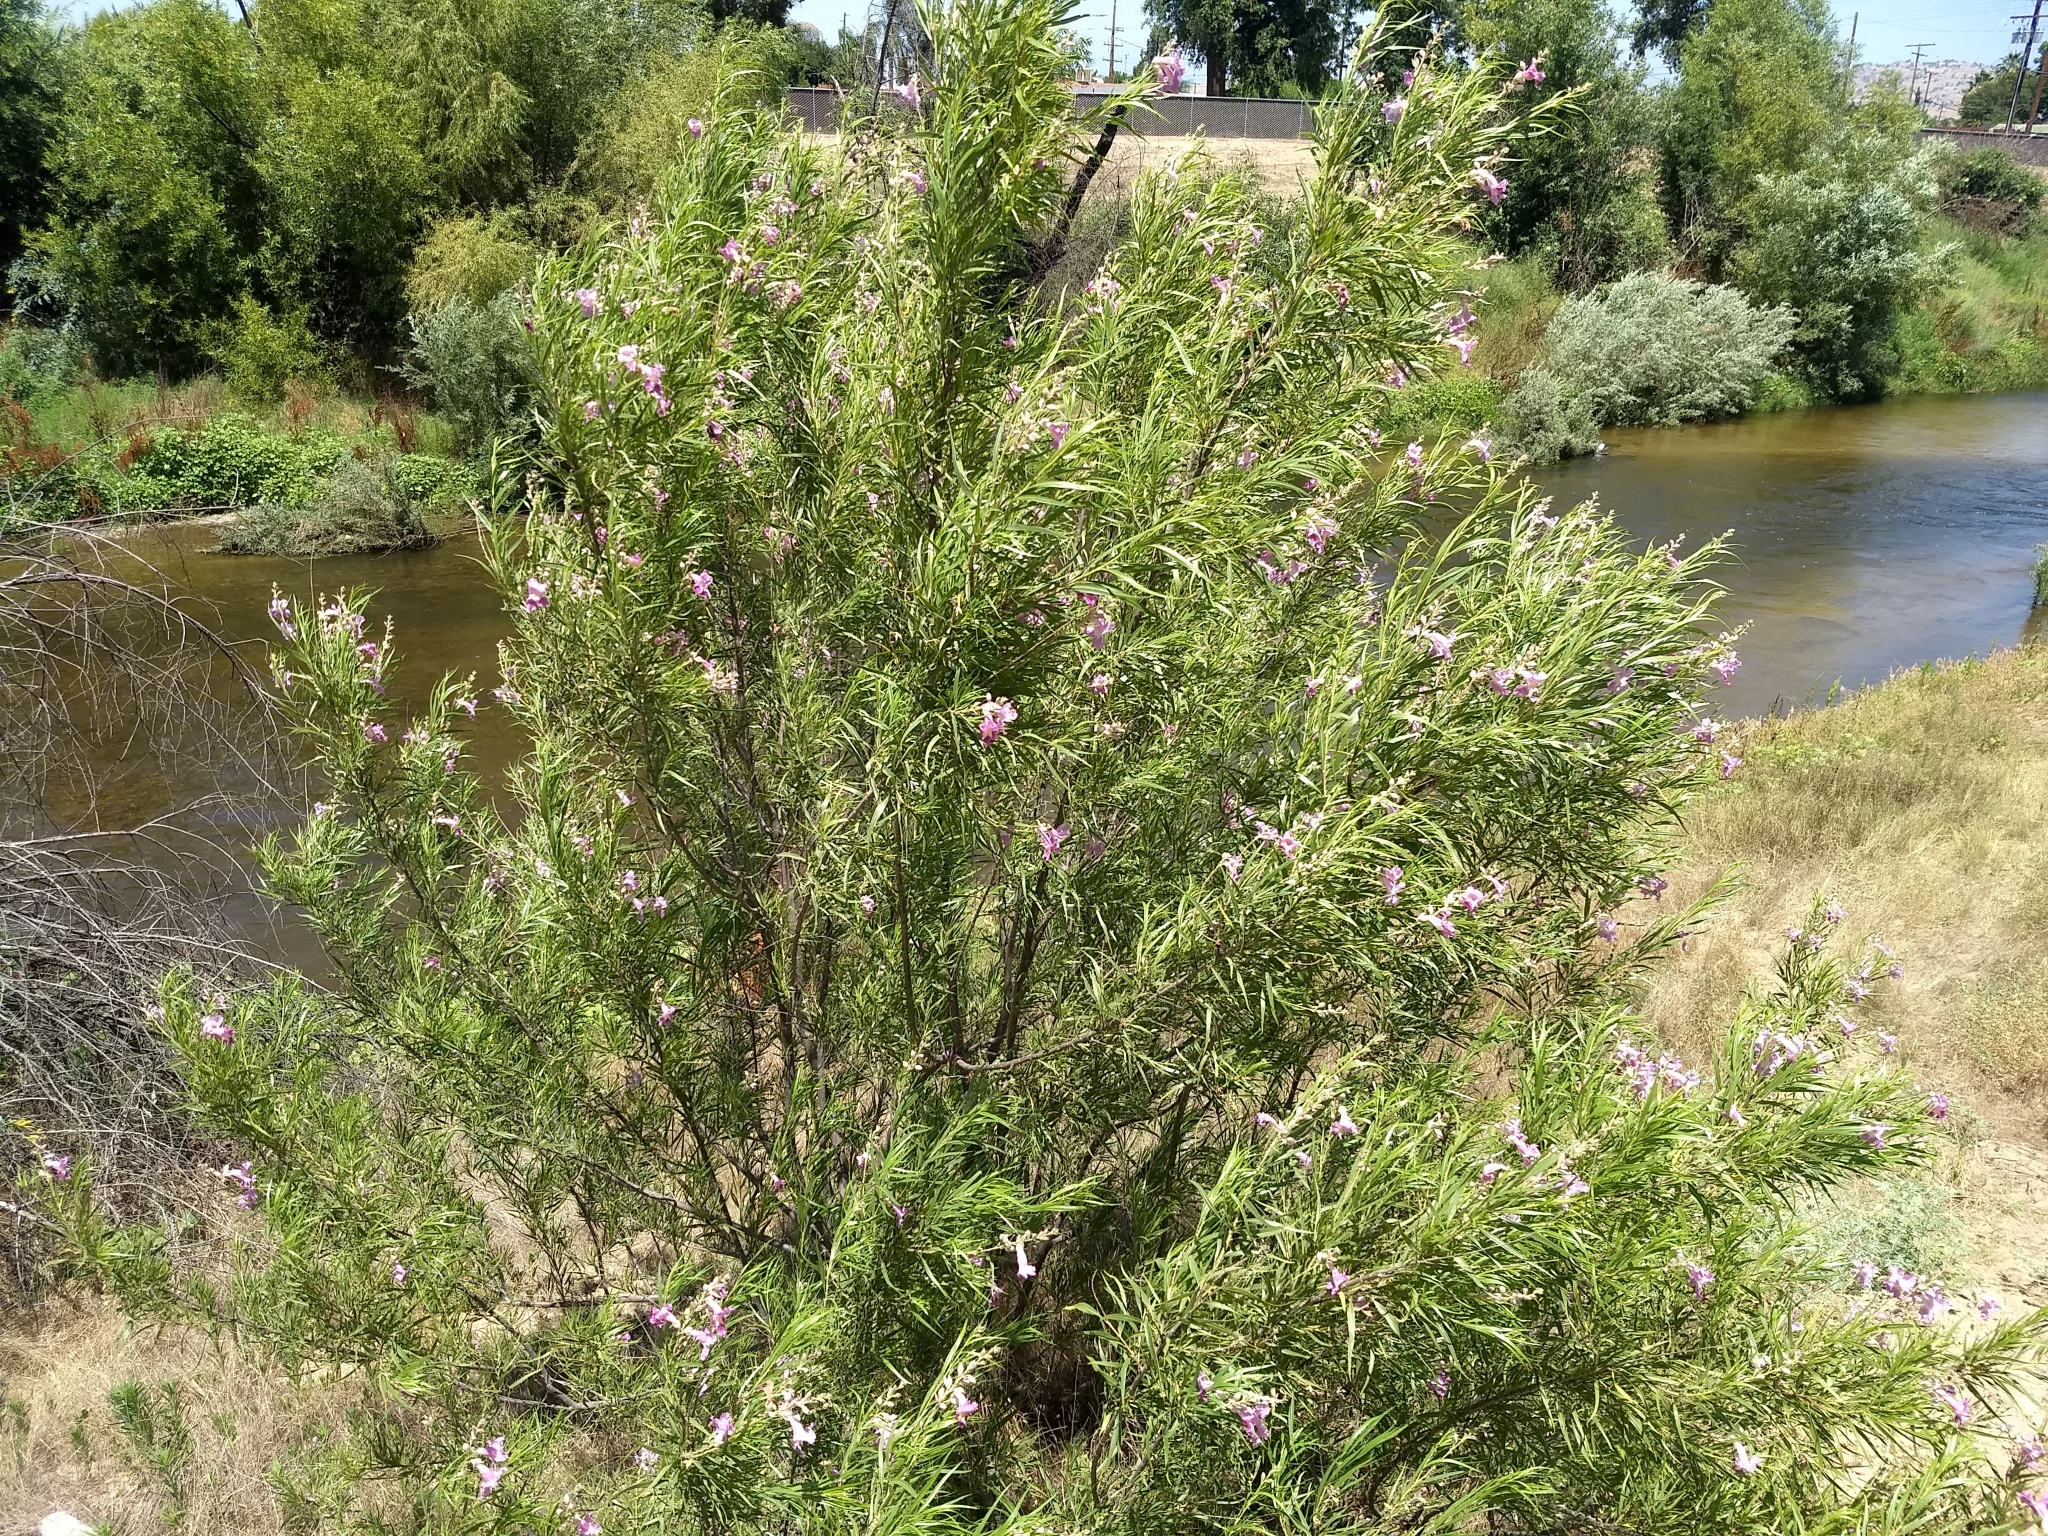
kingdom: Plantae
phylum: Tracheophyta
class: Magnoliopsida
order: Lamiales
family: Bignoniaceae
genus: Chilopsis
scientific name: Chilopsis linearis
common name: Desert-willow
